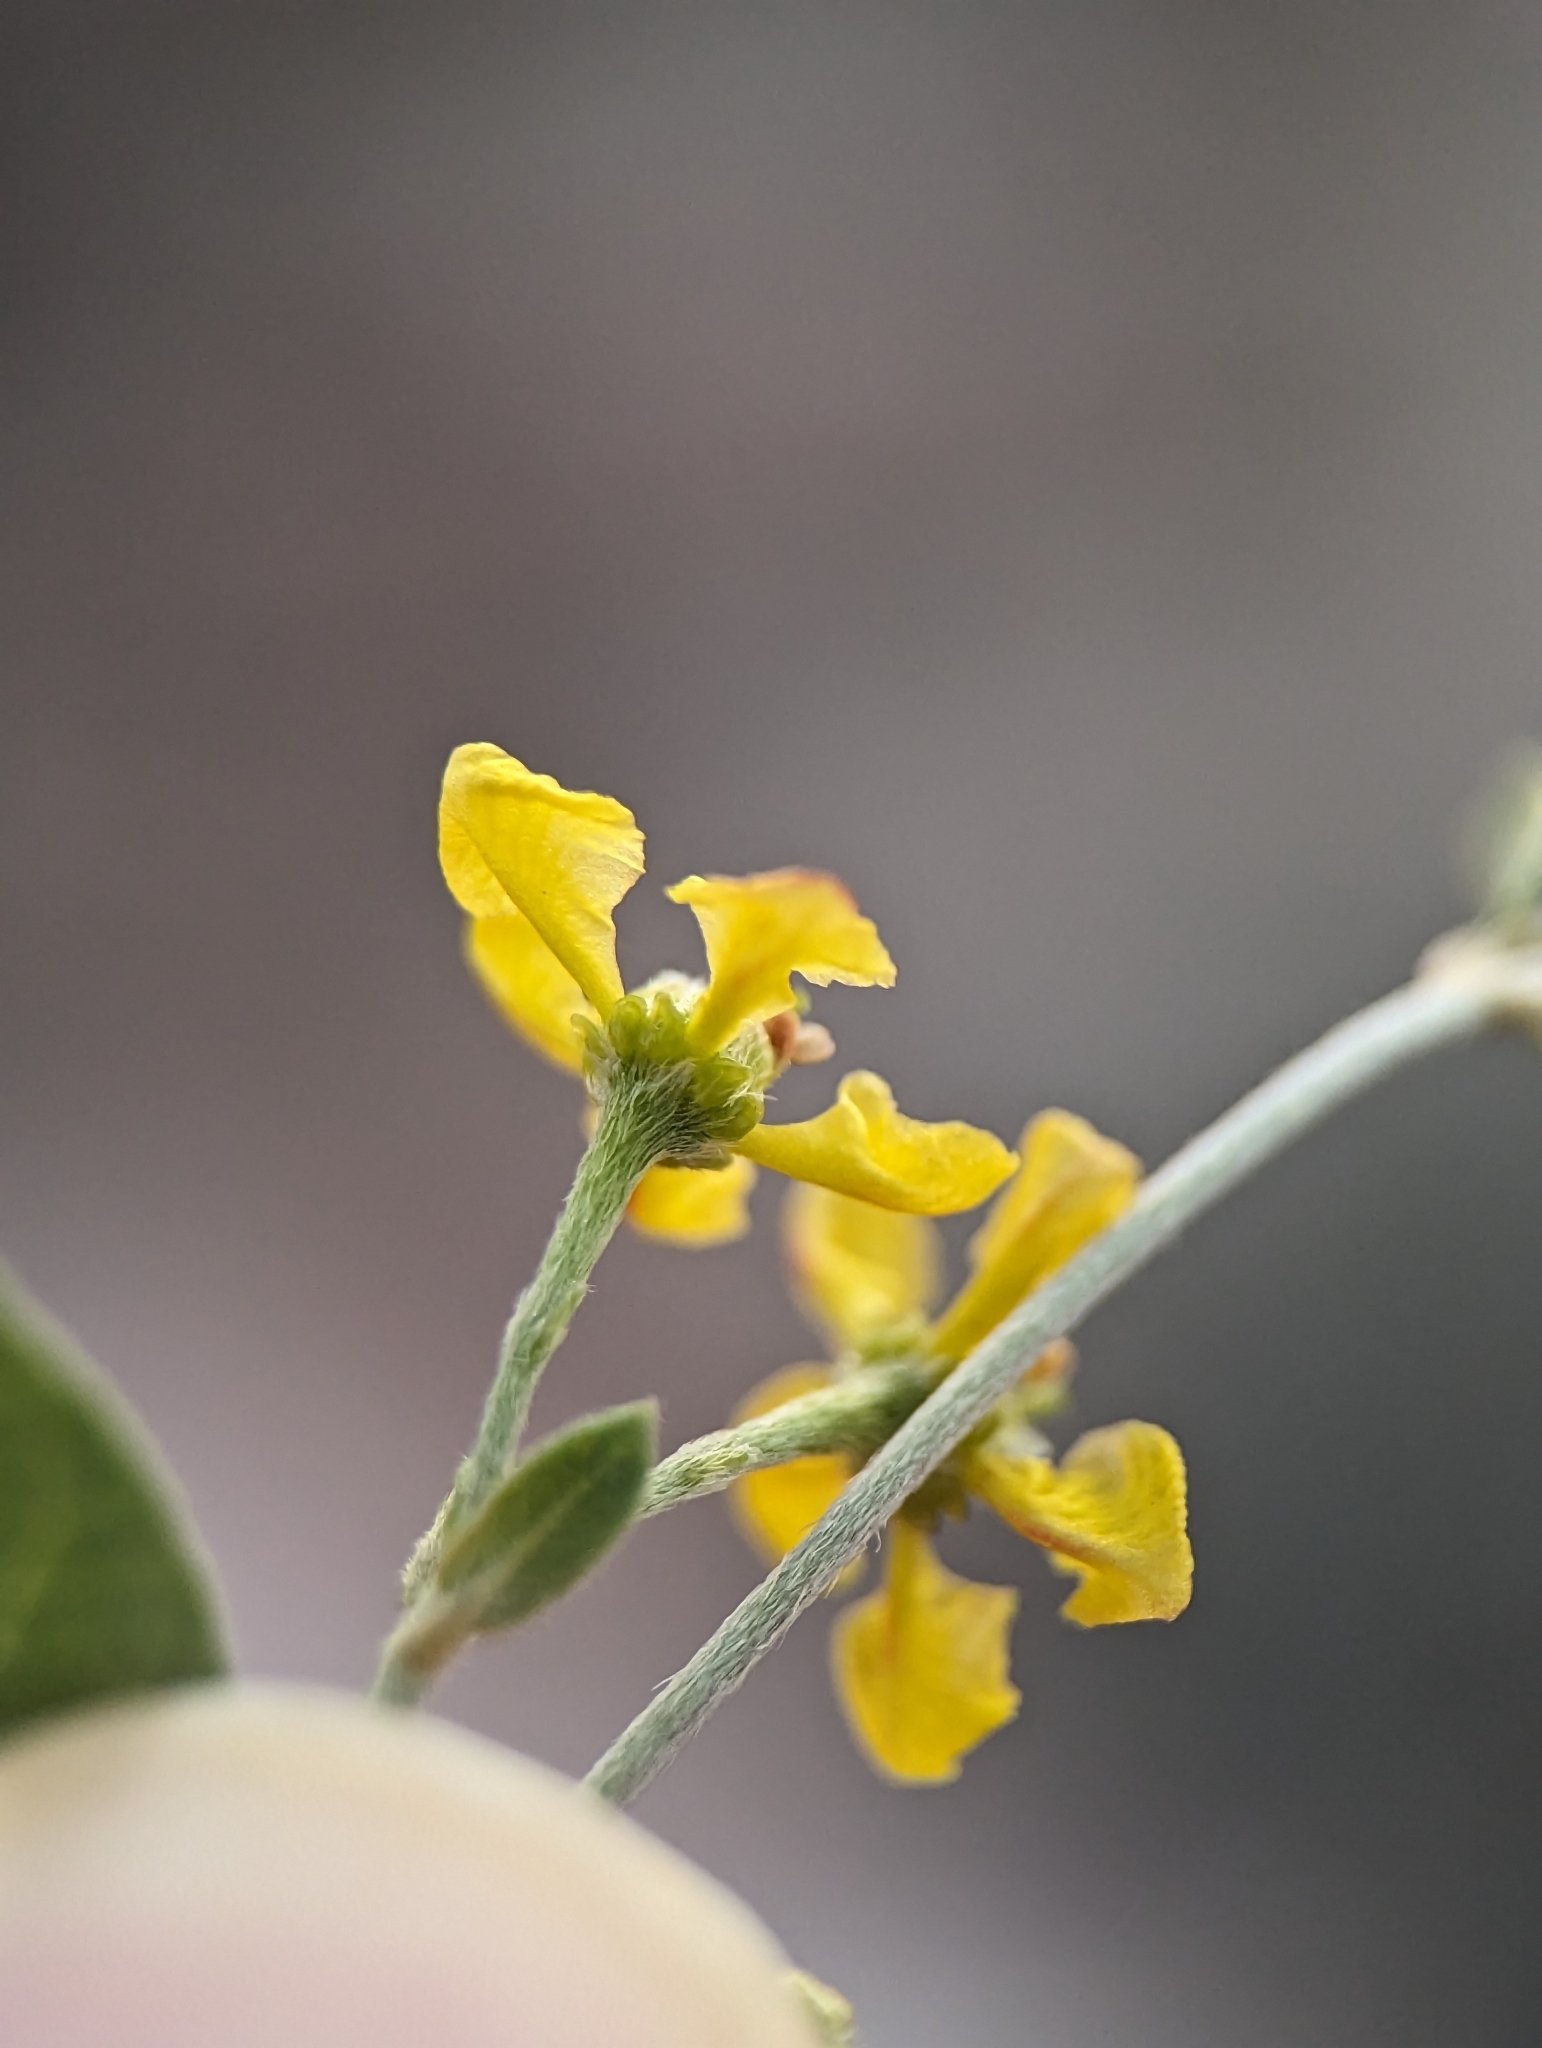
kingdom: Plantae
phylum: Tracheophyta
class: Magnoliopsida
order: Malpighiales
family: Malpighiaceae
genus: Cottsia
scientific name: Cottsia californica
